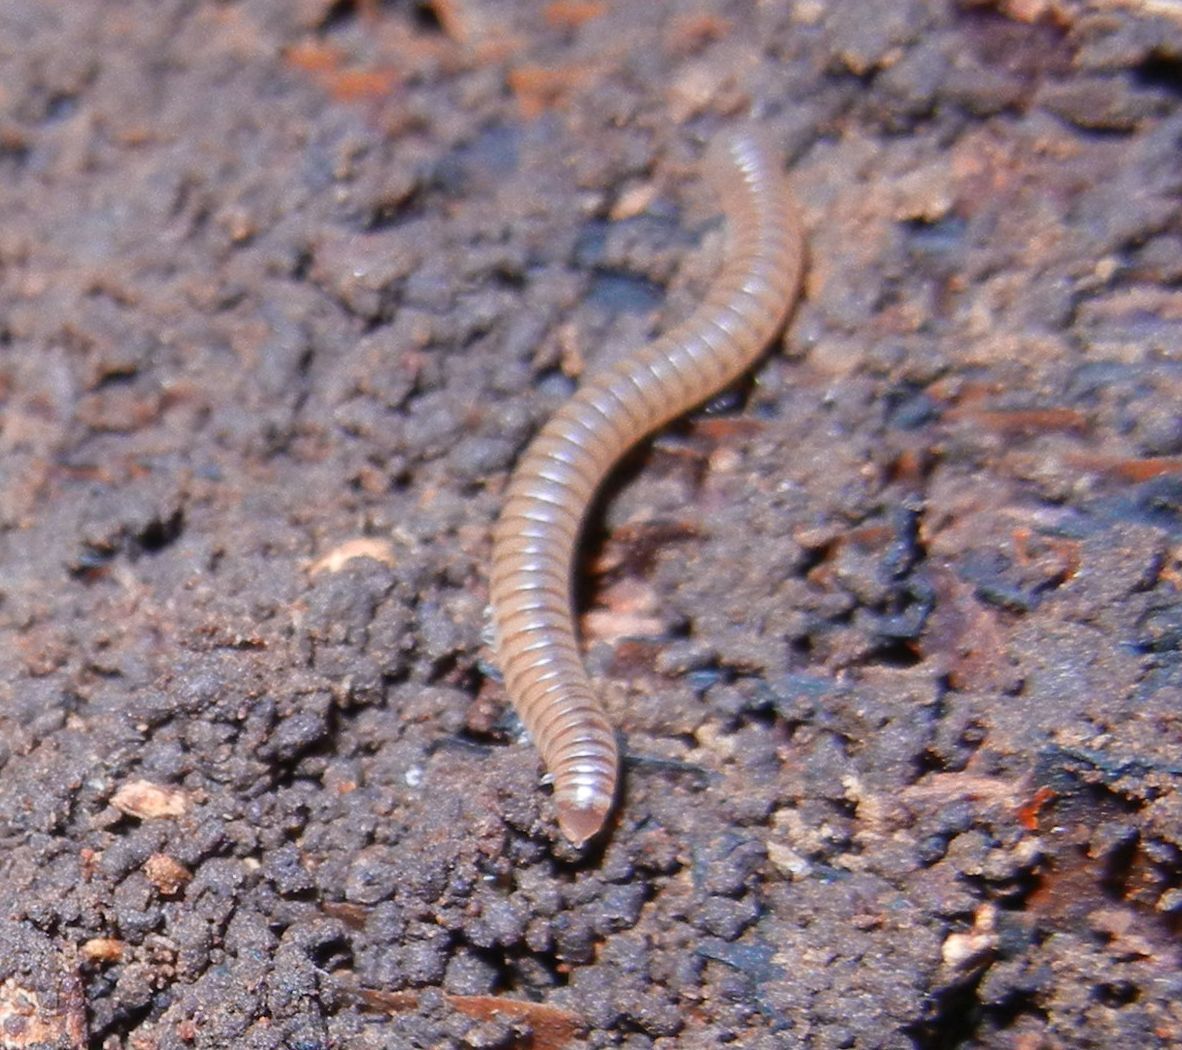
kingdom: Animalia
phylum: Arthropoda
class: Diplopoda
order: Julida
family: Julidae
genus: Cylindroiulus
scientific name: Cylindroiulus punctatus
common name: Blunt-tailed millipede
